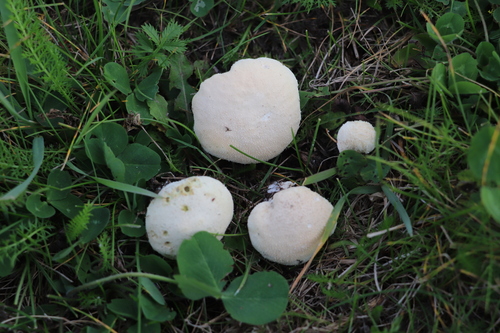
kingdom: Fungi
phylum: Basidiomycota
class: Agaricomycetes
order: Agaricales
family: Lycoperdaceae
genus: Lycoperdon
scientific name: Lycoperdon pratense
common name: Meadow puffball
